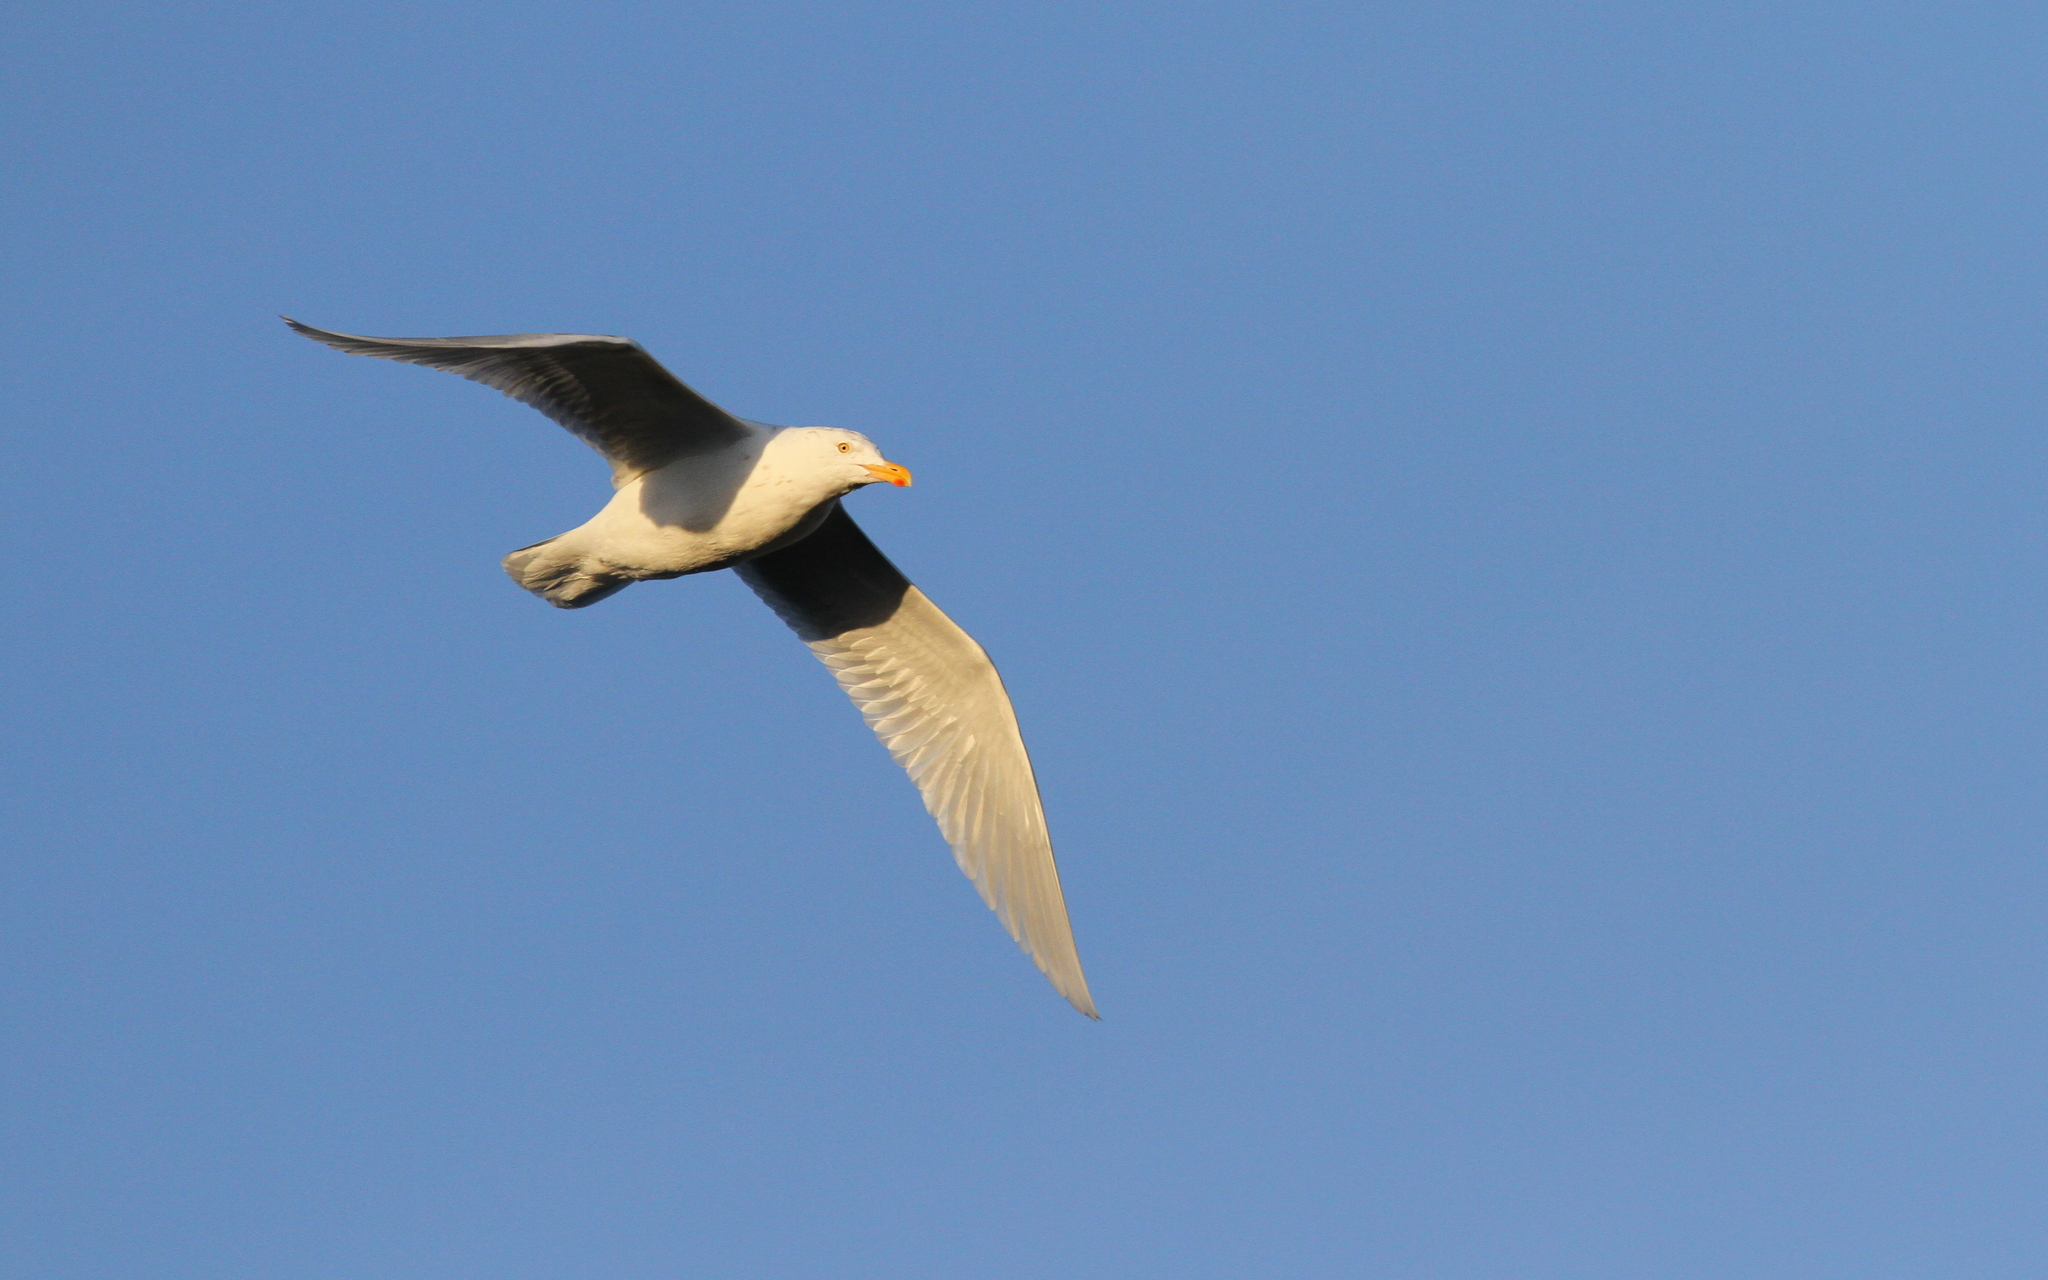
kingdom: Animalia
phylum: Chordata
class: Aves
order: Charadriiformes
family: Laridae
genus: Larus
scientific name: Larus hyperboreus
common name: Glaucous gull
